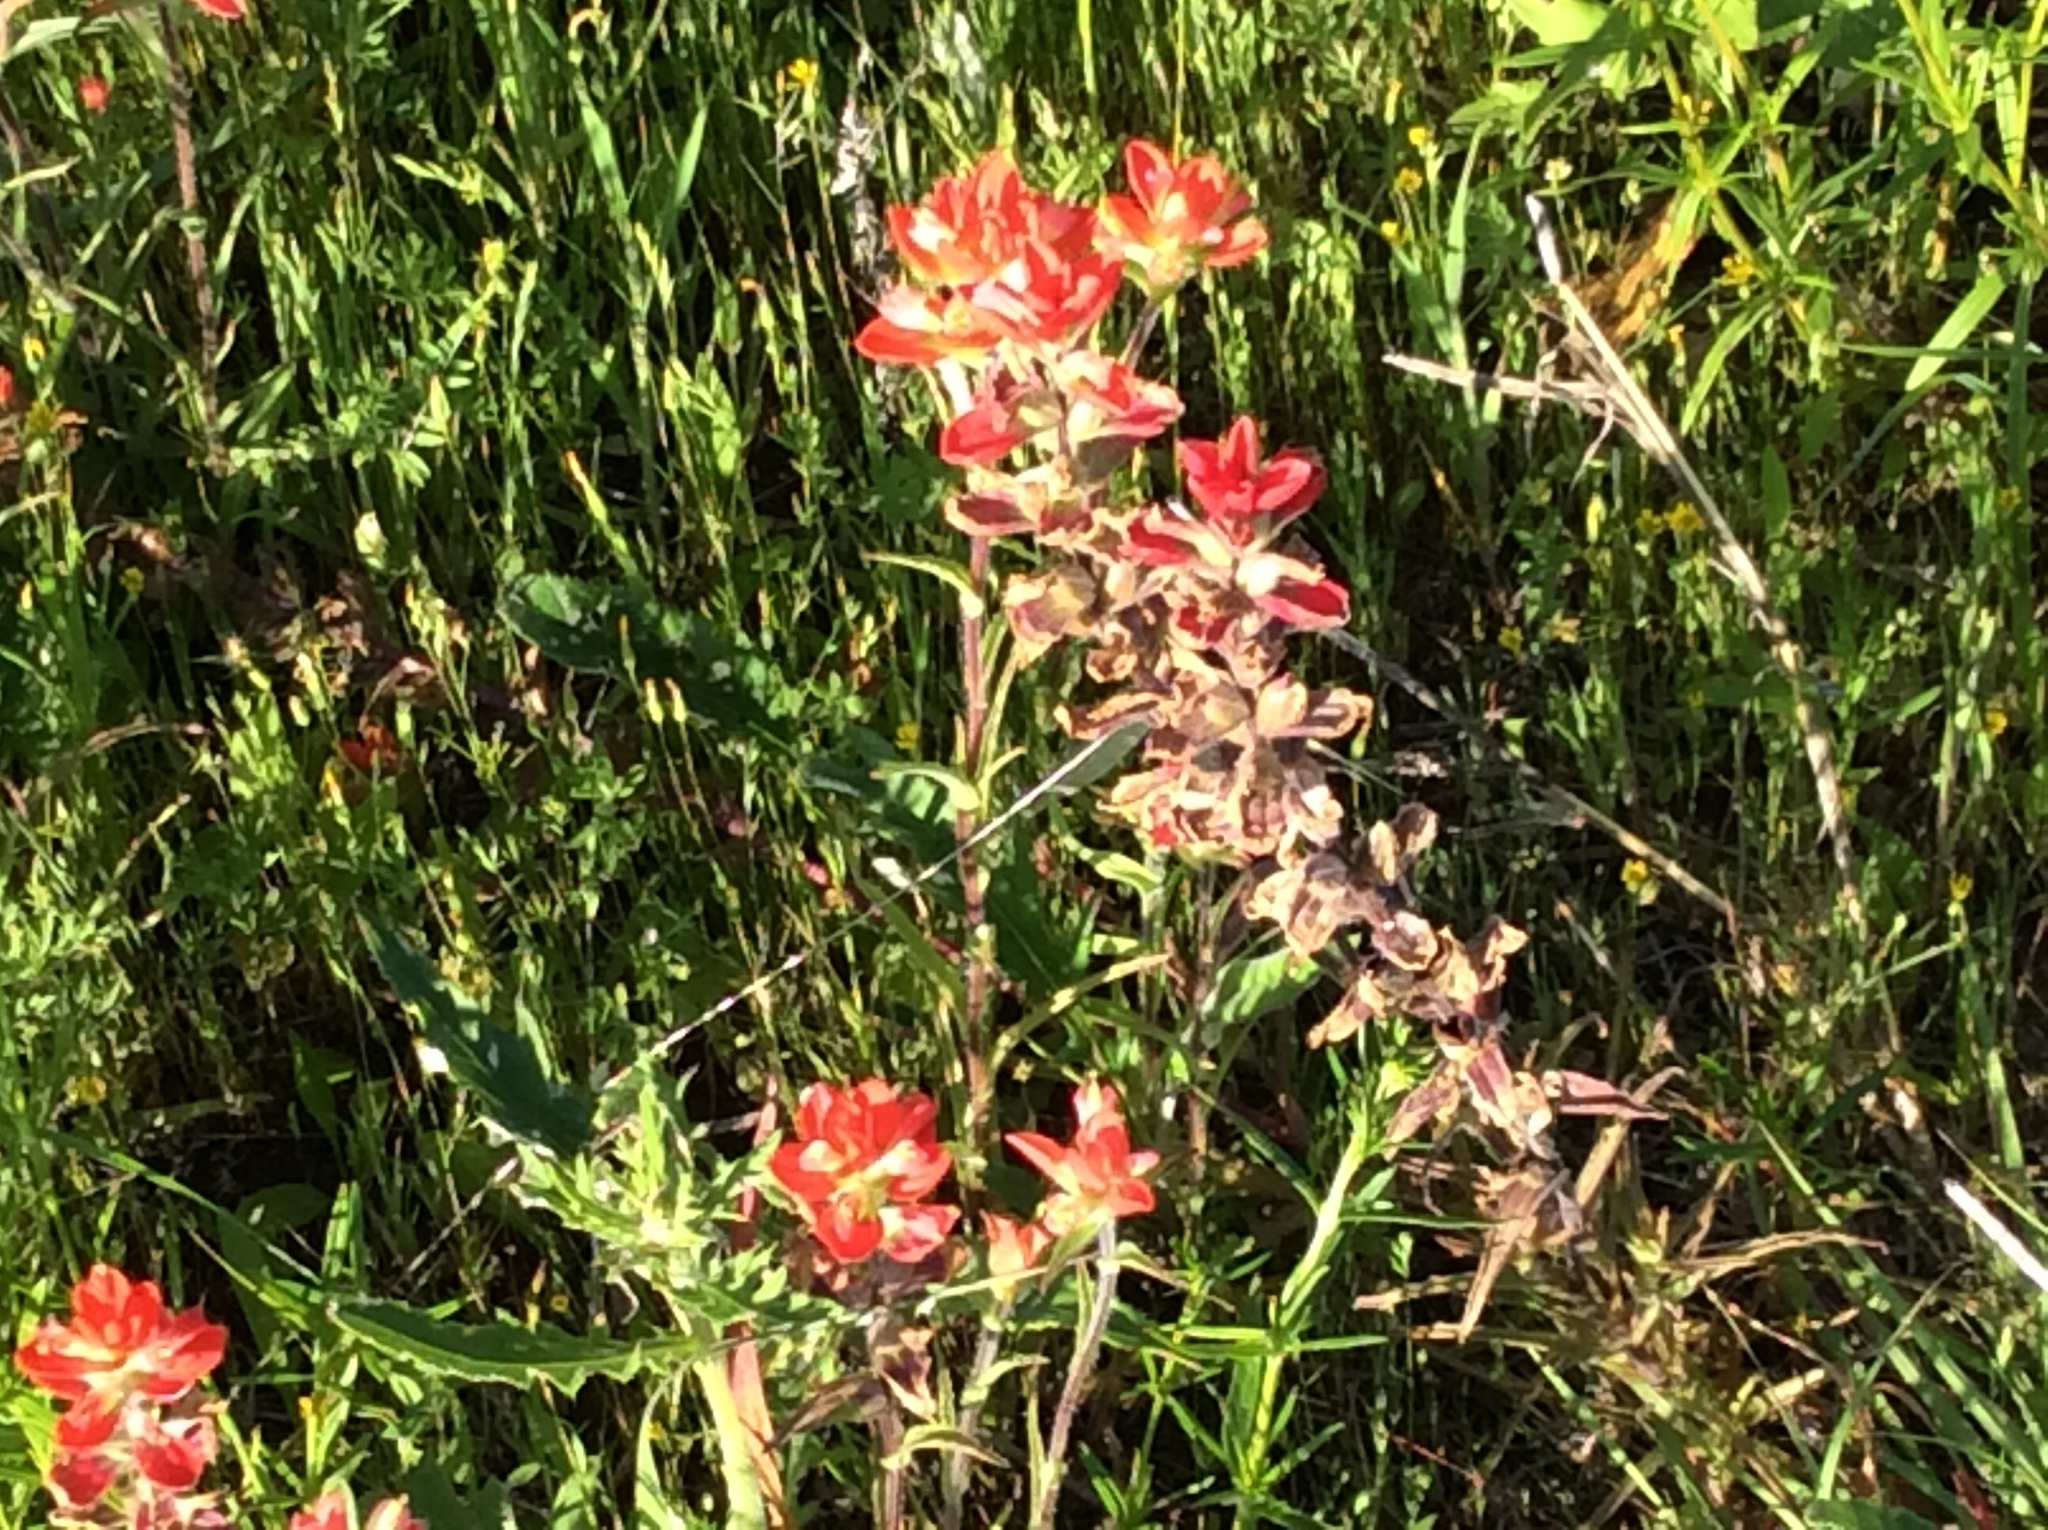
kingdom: Plantae
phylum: Tracheophyta
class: Magnoliopsida
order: Lamiales
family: Orobanchaceae
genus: Castilleja
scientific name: Castilleja indivisa
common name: Texas paintbrush
